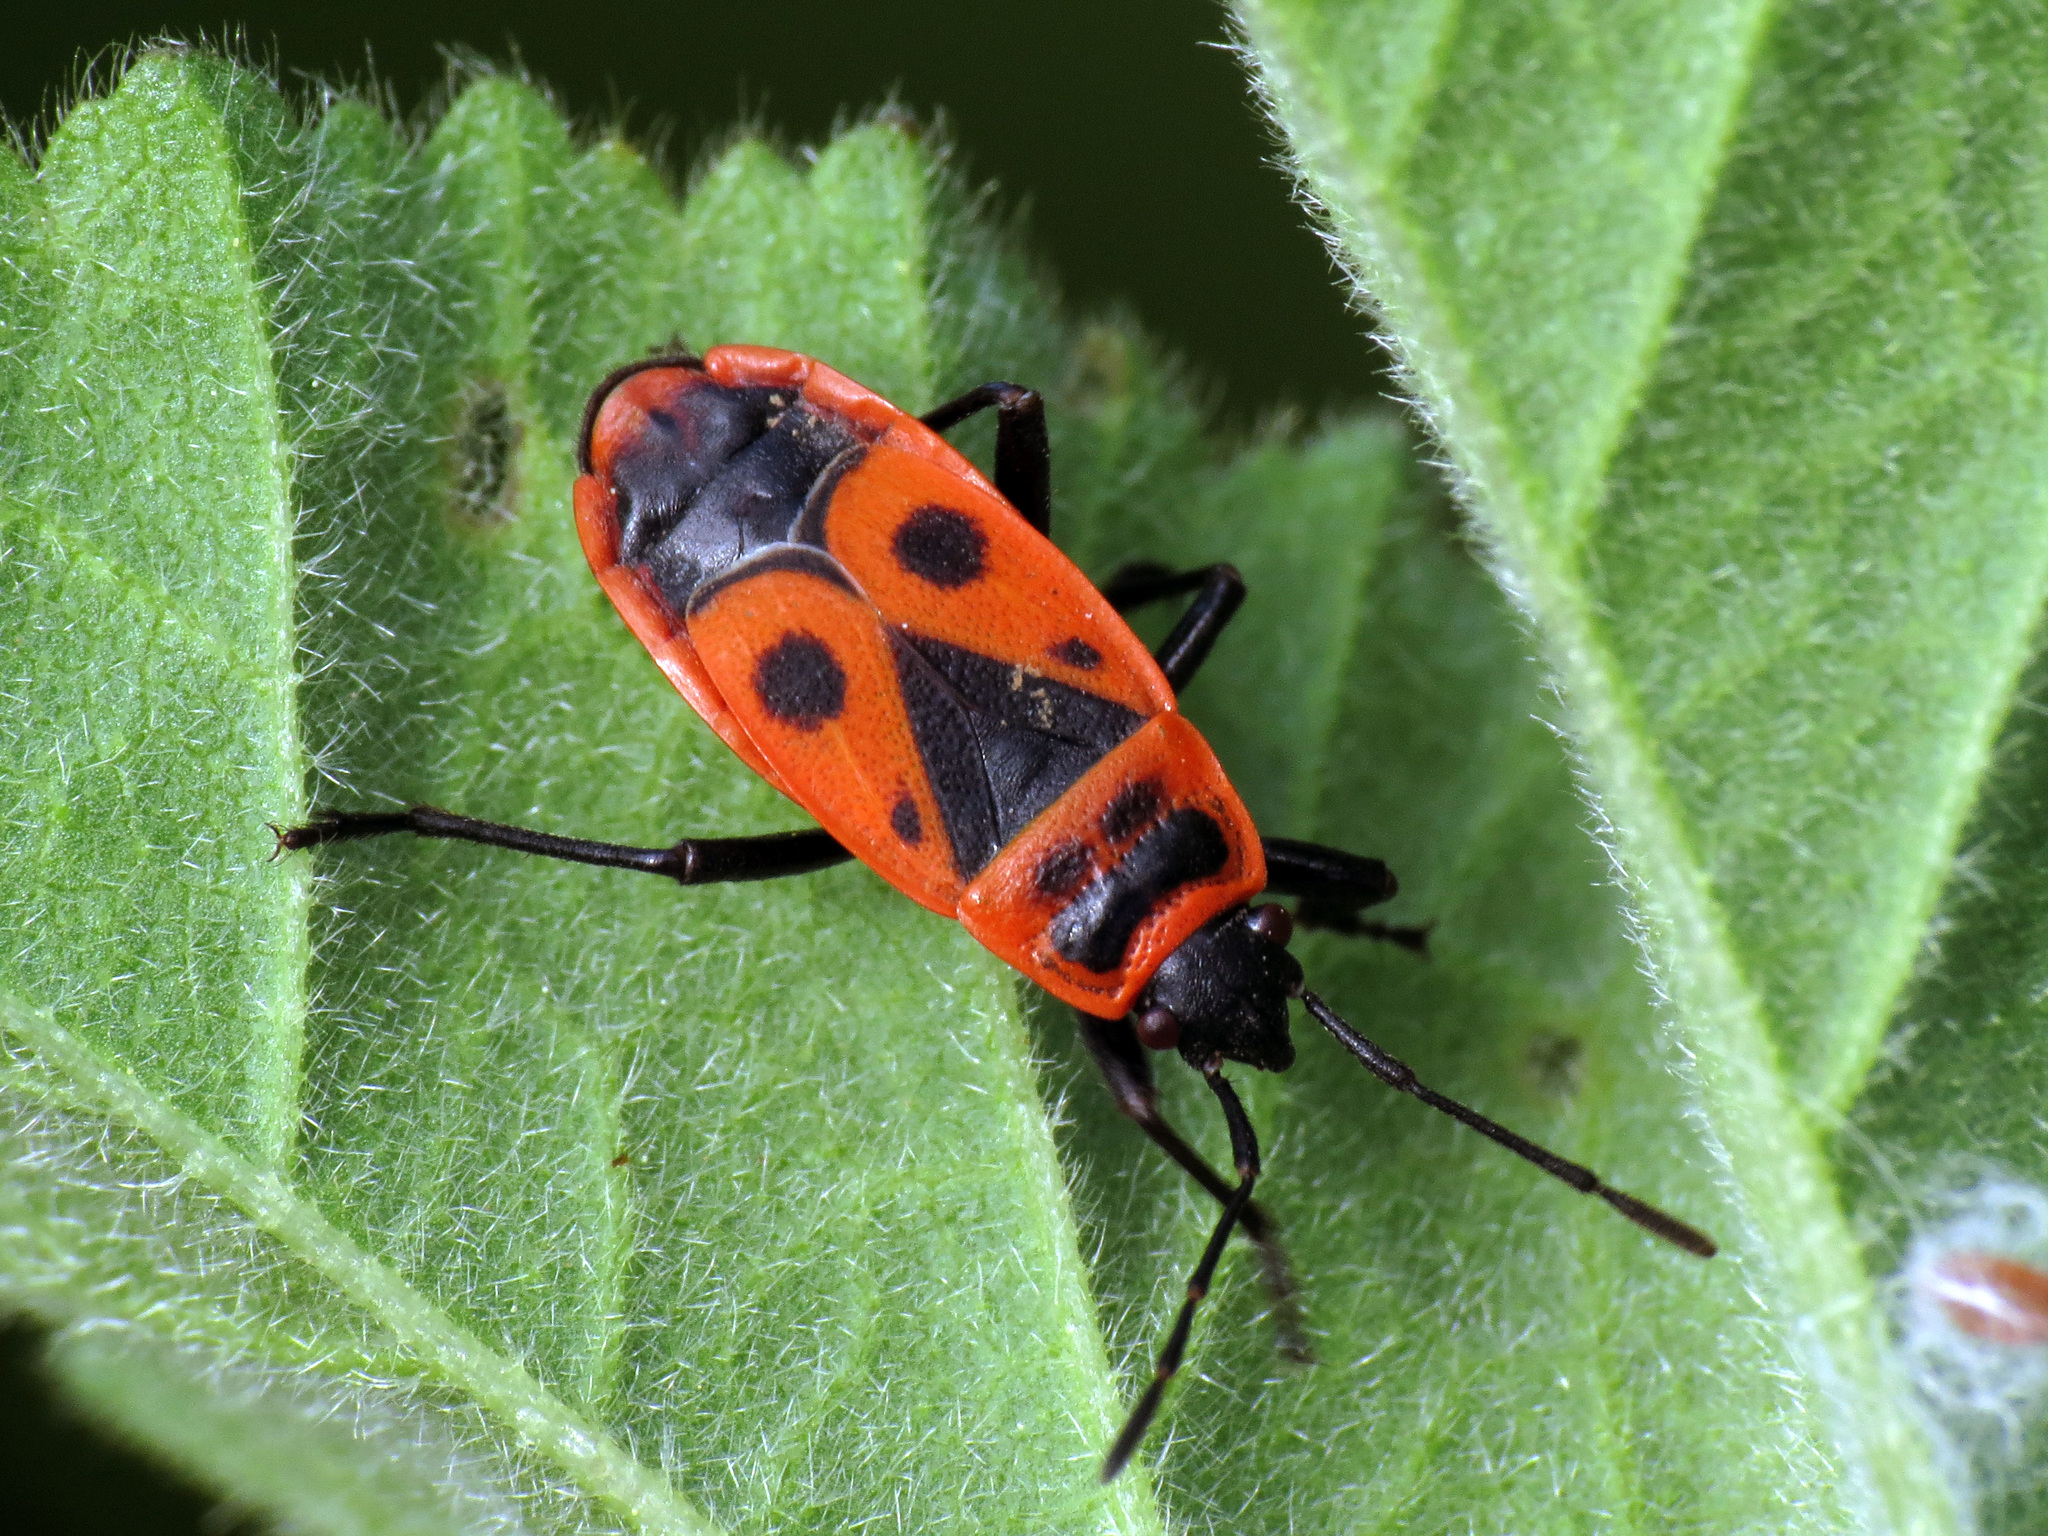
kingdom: Animalia
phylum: Arthropoda
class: Insecta
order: Hemiptera
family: Pyrrhocoridae
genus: Pyrrhocoris
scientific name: Pyrrhocoris apterus
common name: Firebug
